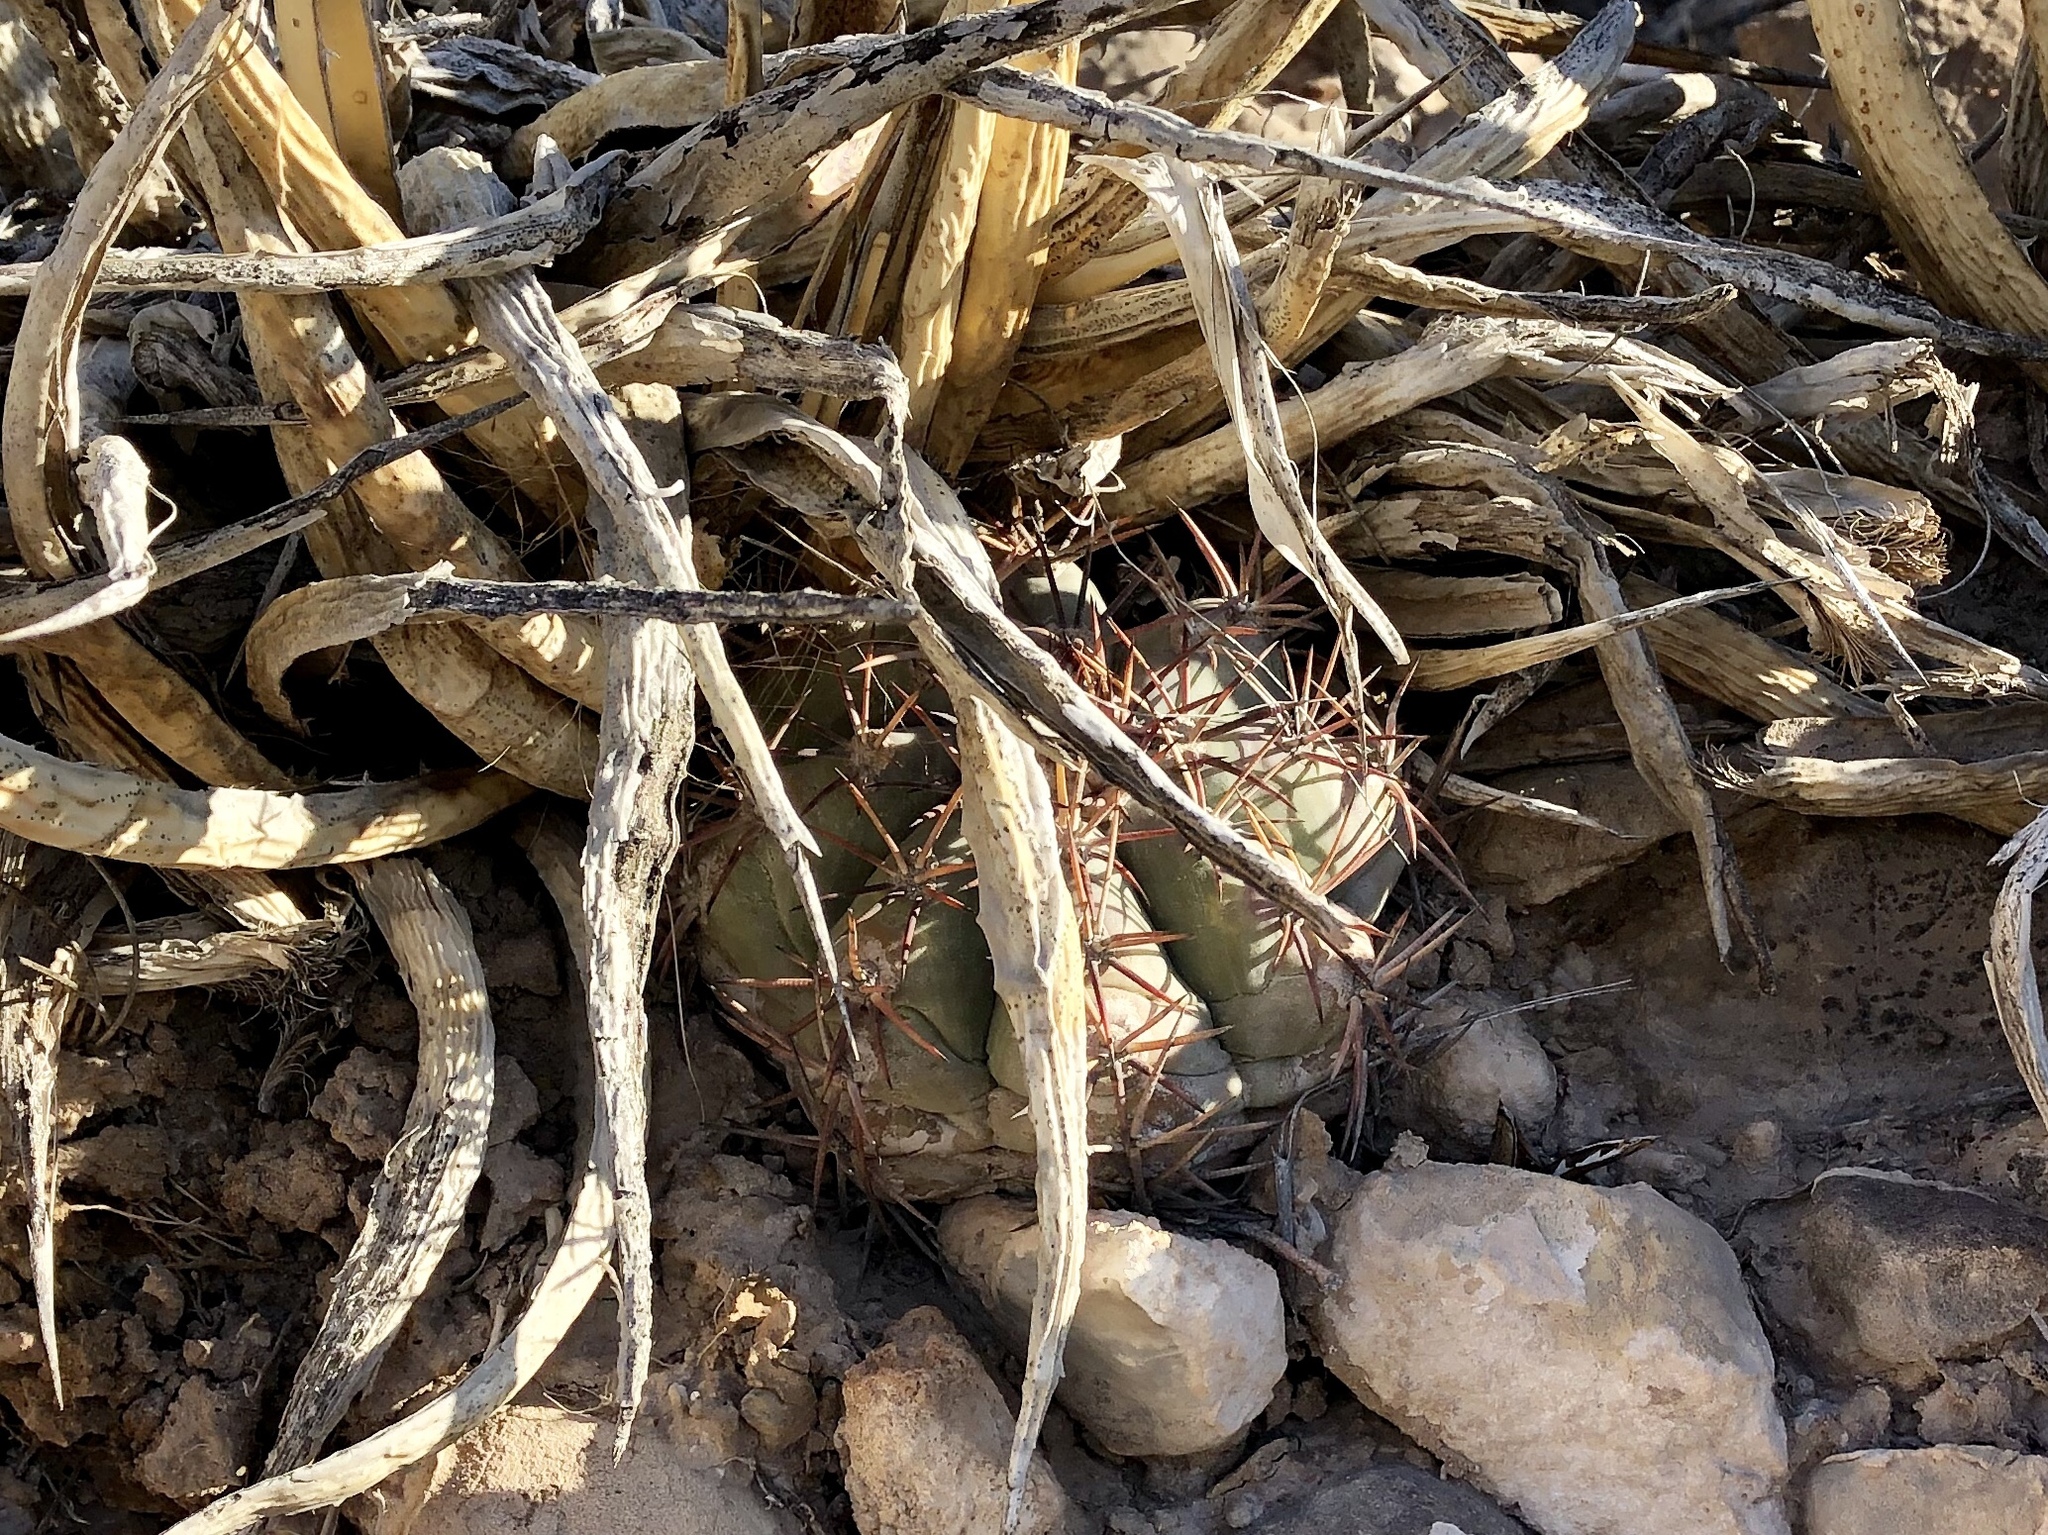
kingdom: Plantae
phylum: Tracheophyta
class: Magnoliopsida
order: Caryophyllales
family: Cactaceae
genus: Echinocactus
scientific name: Echinocactus horizonthalonius
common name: Devilshead
